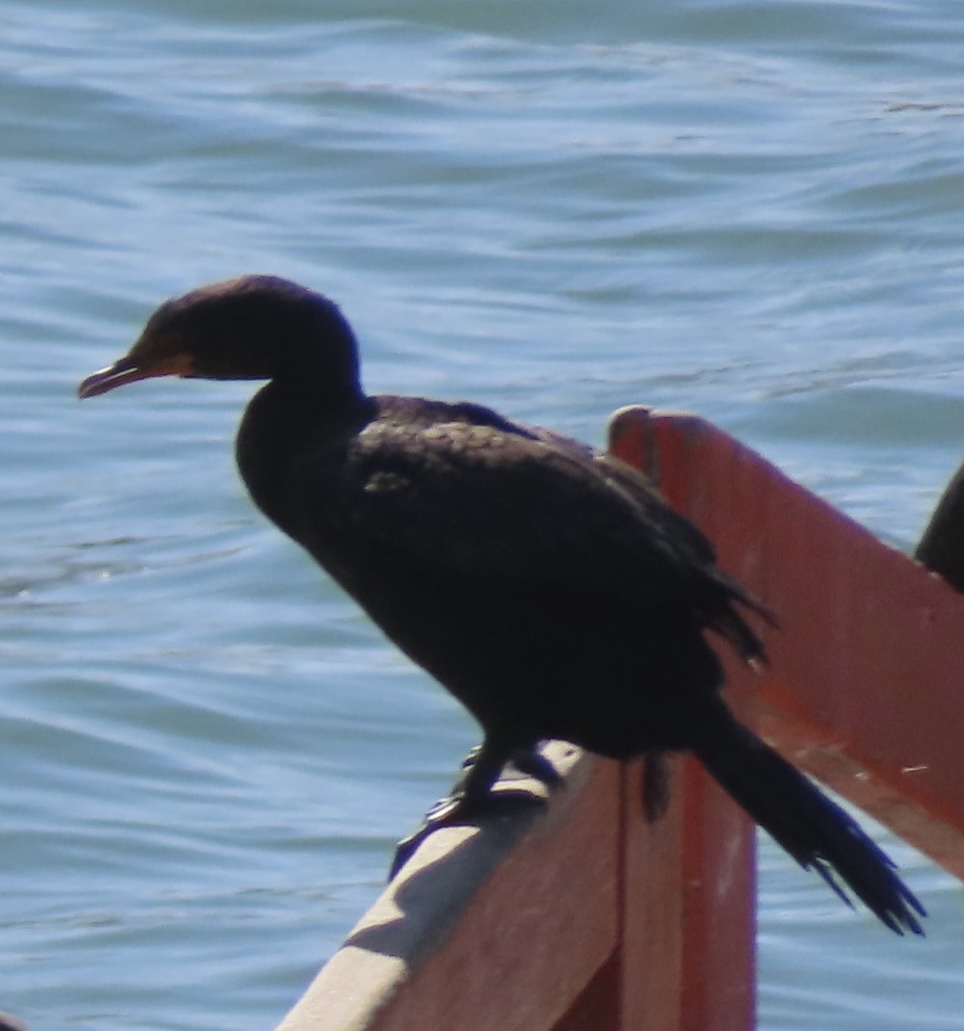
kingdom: Animalia
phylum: Chordata
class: Aves
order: Suliformes
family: Phalacrocoracidae
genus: Microcarbo
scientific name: Microcarbo coronatus
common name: Crowned cormorant
